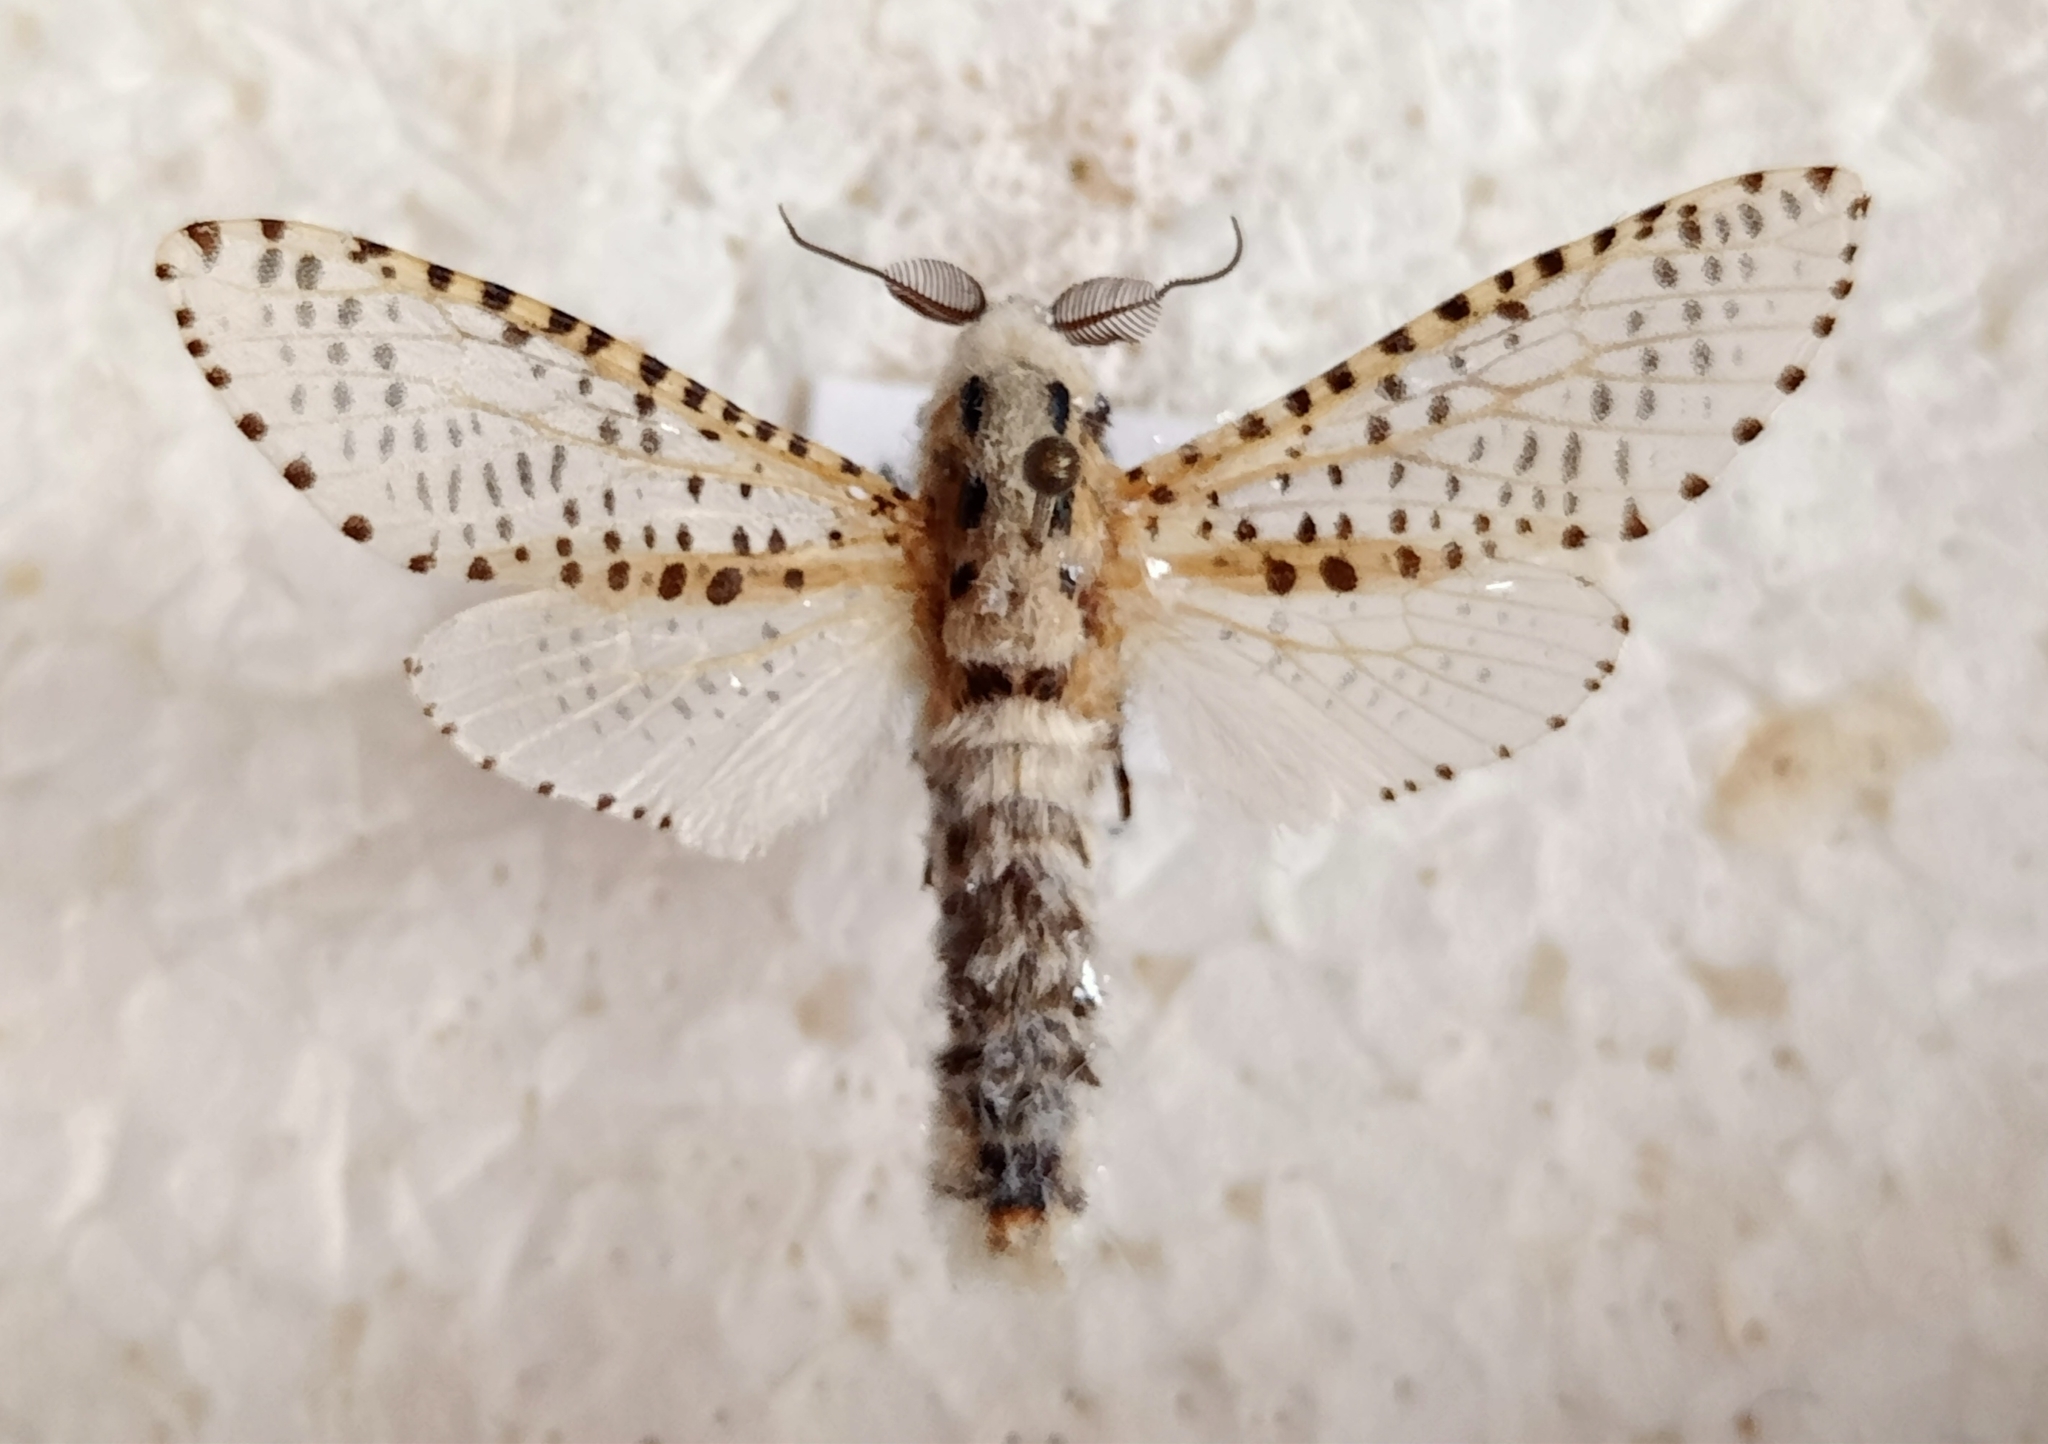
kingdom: Animalia
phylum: Arthropoda
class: Insecta
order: Lepidoptera
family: Cossidae
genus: Zeuzera
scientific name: Zeuzera pyrina
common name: Leopard moth
